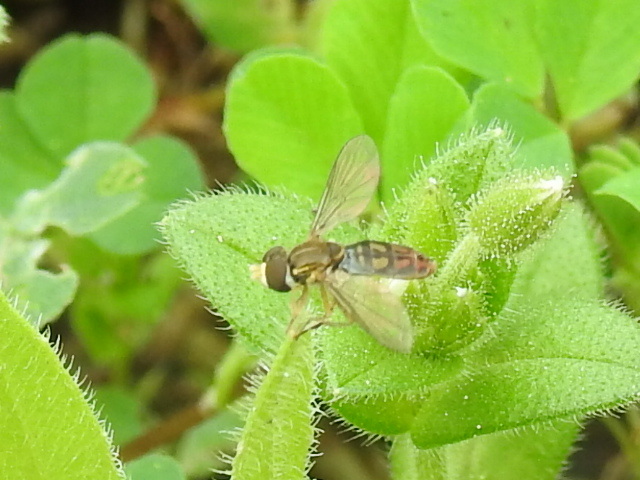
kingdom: Animalia
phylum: Arthropoda
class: Insecta
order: Diptera
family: Syrphidae
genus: Toxomerus
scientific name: Toxomerus marginatus
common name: Syrphid fly
